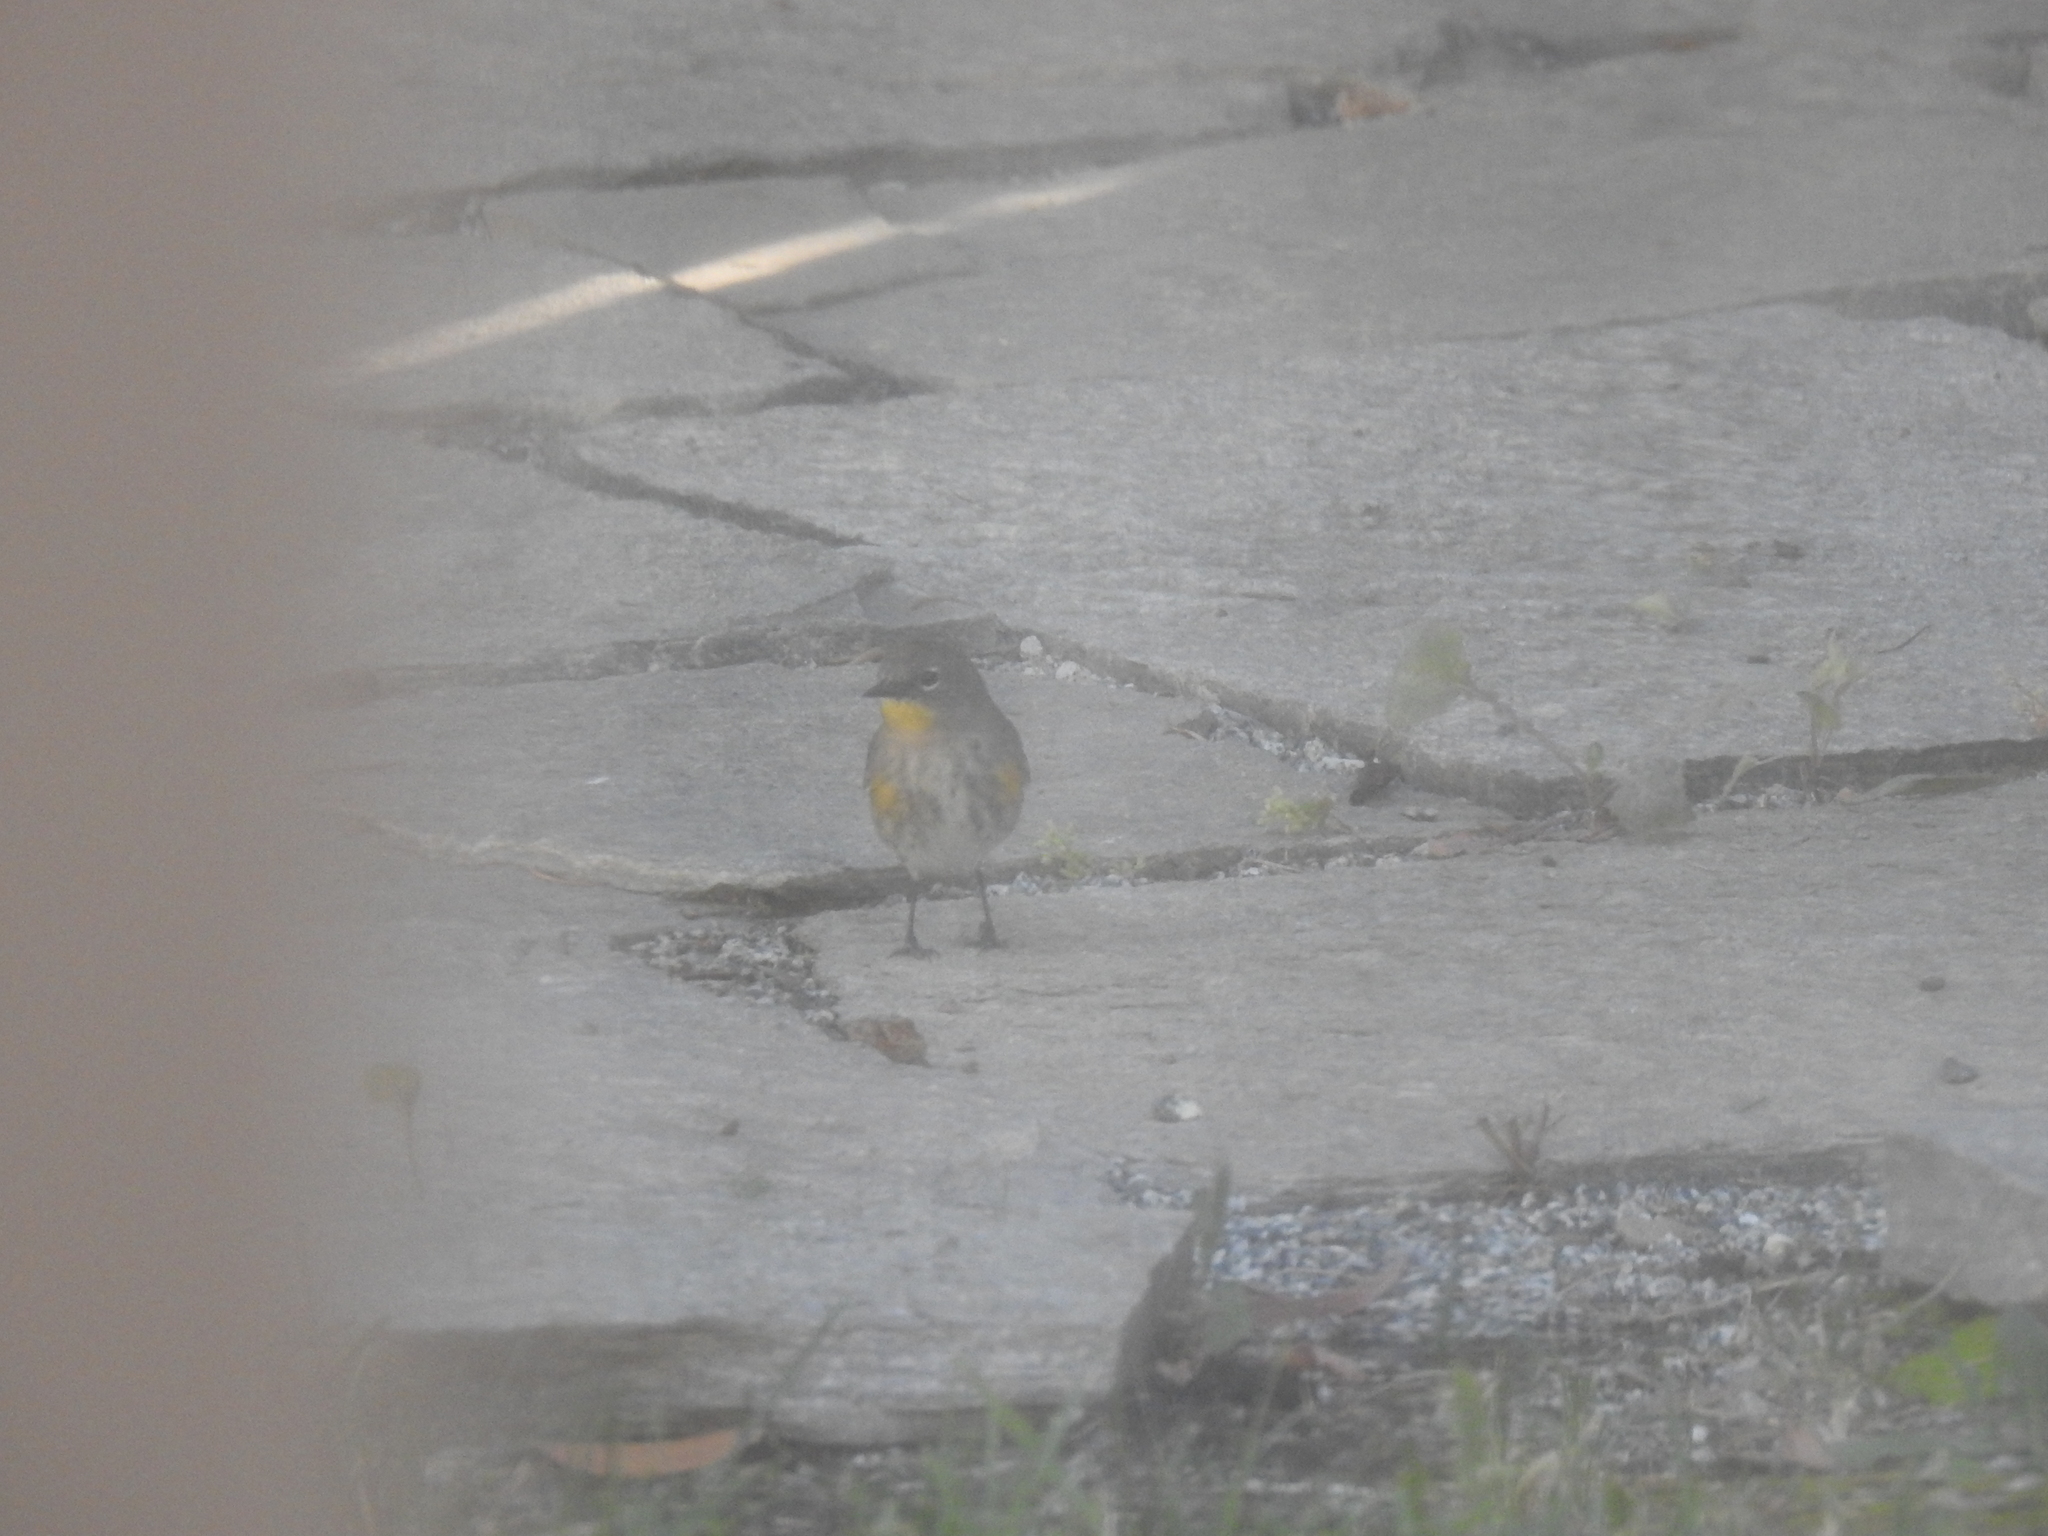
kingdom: Animalia
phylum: Chordata
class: Aves
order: Passeriformes
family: Parulidae
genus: Setophaga
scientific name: Setophaga coronata
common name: Myrtle warbler
